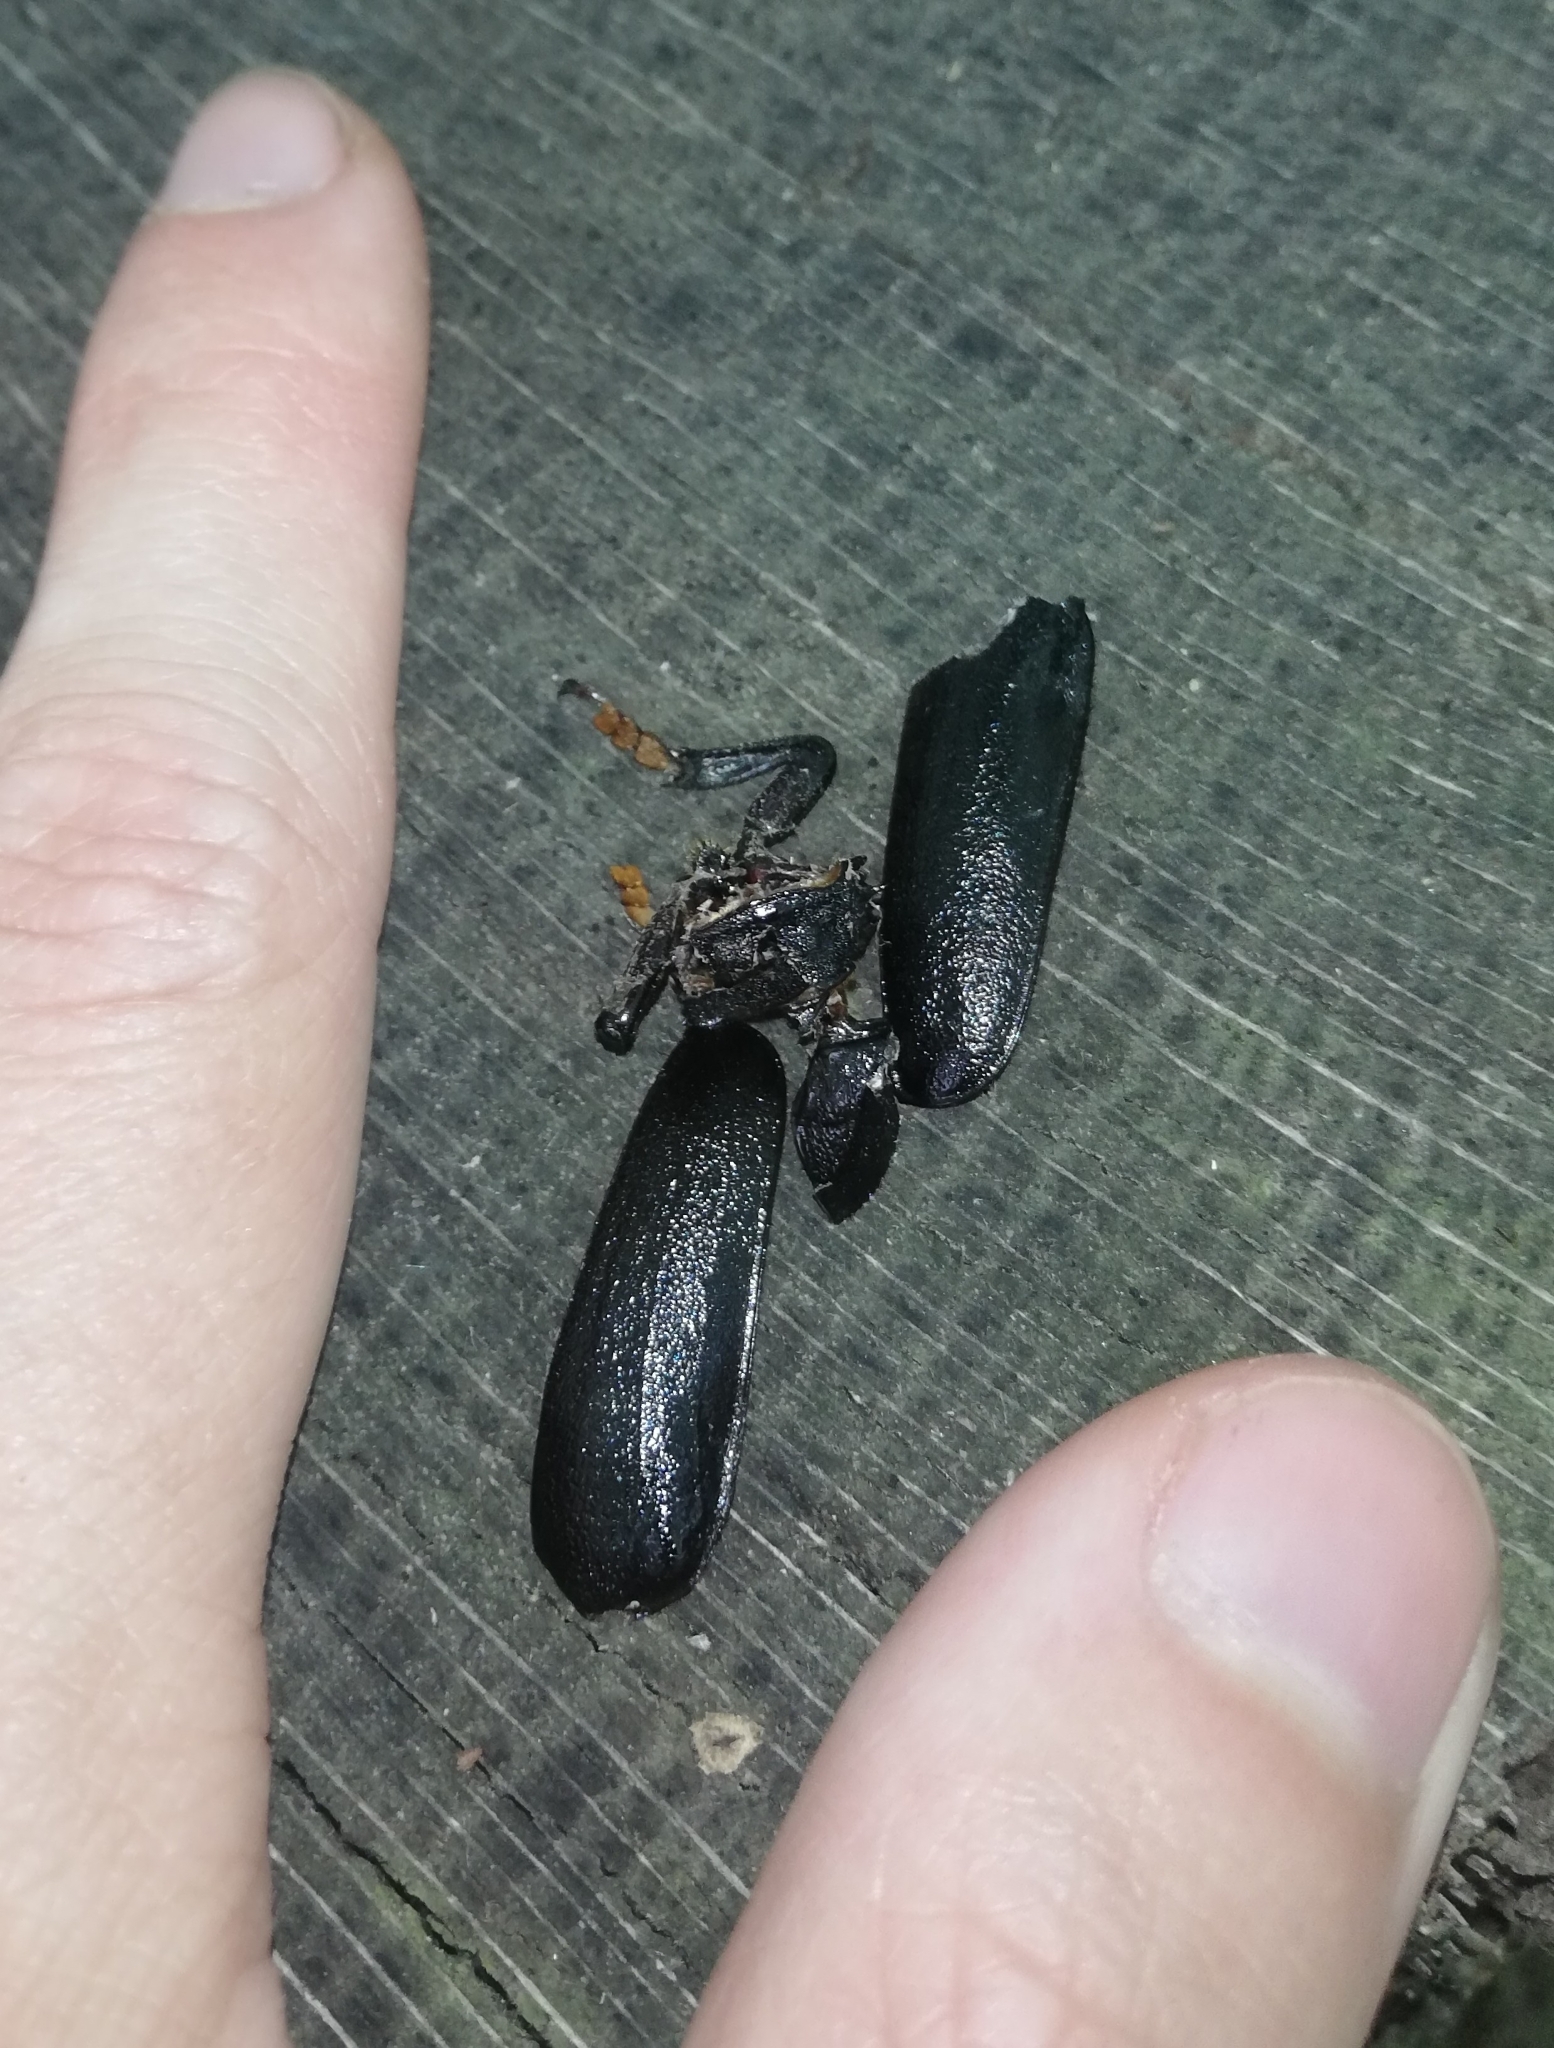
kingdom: Animalia
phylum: Arthropoda
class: Insecta
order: Coleoptera
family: Cerambycidae
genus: Prionus
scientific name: Prionus coriarius
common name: Tanner beetle
